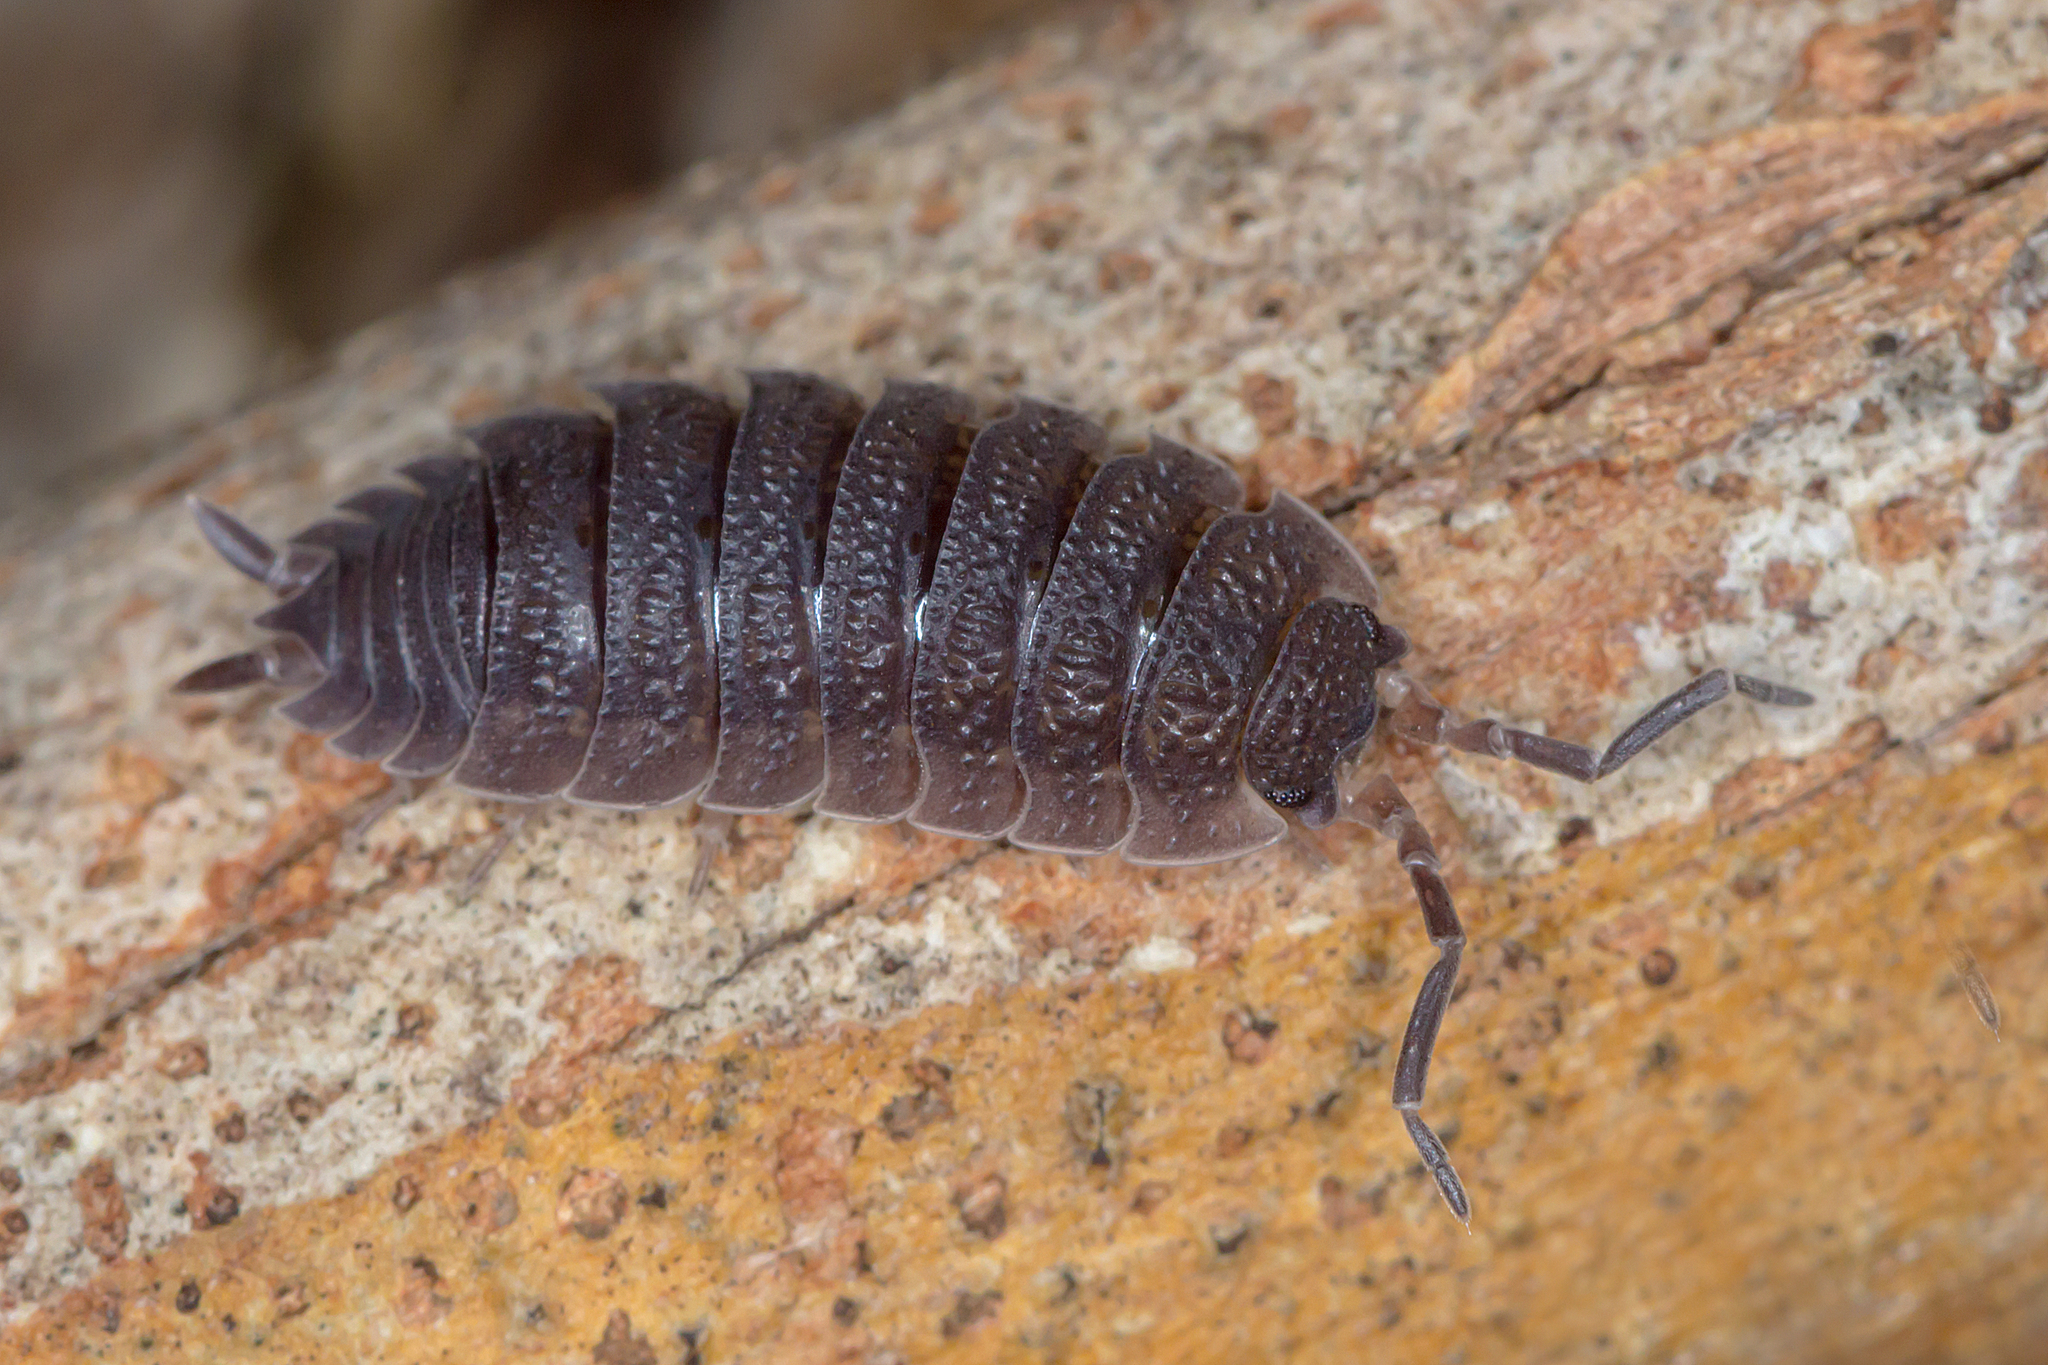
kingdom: Animalia
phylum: Arthropoda
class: Malacostraca
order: Isopoda
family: Porcellionidae
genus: Porcellio
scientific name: Porcellio scaber
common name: Common rough woodlouse
